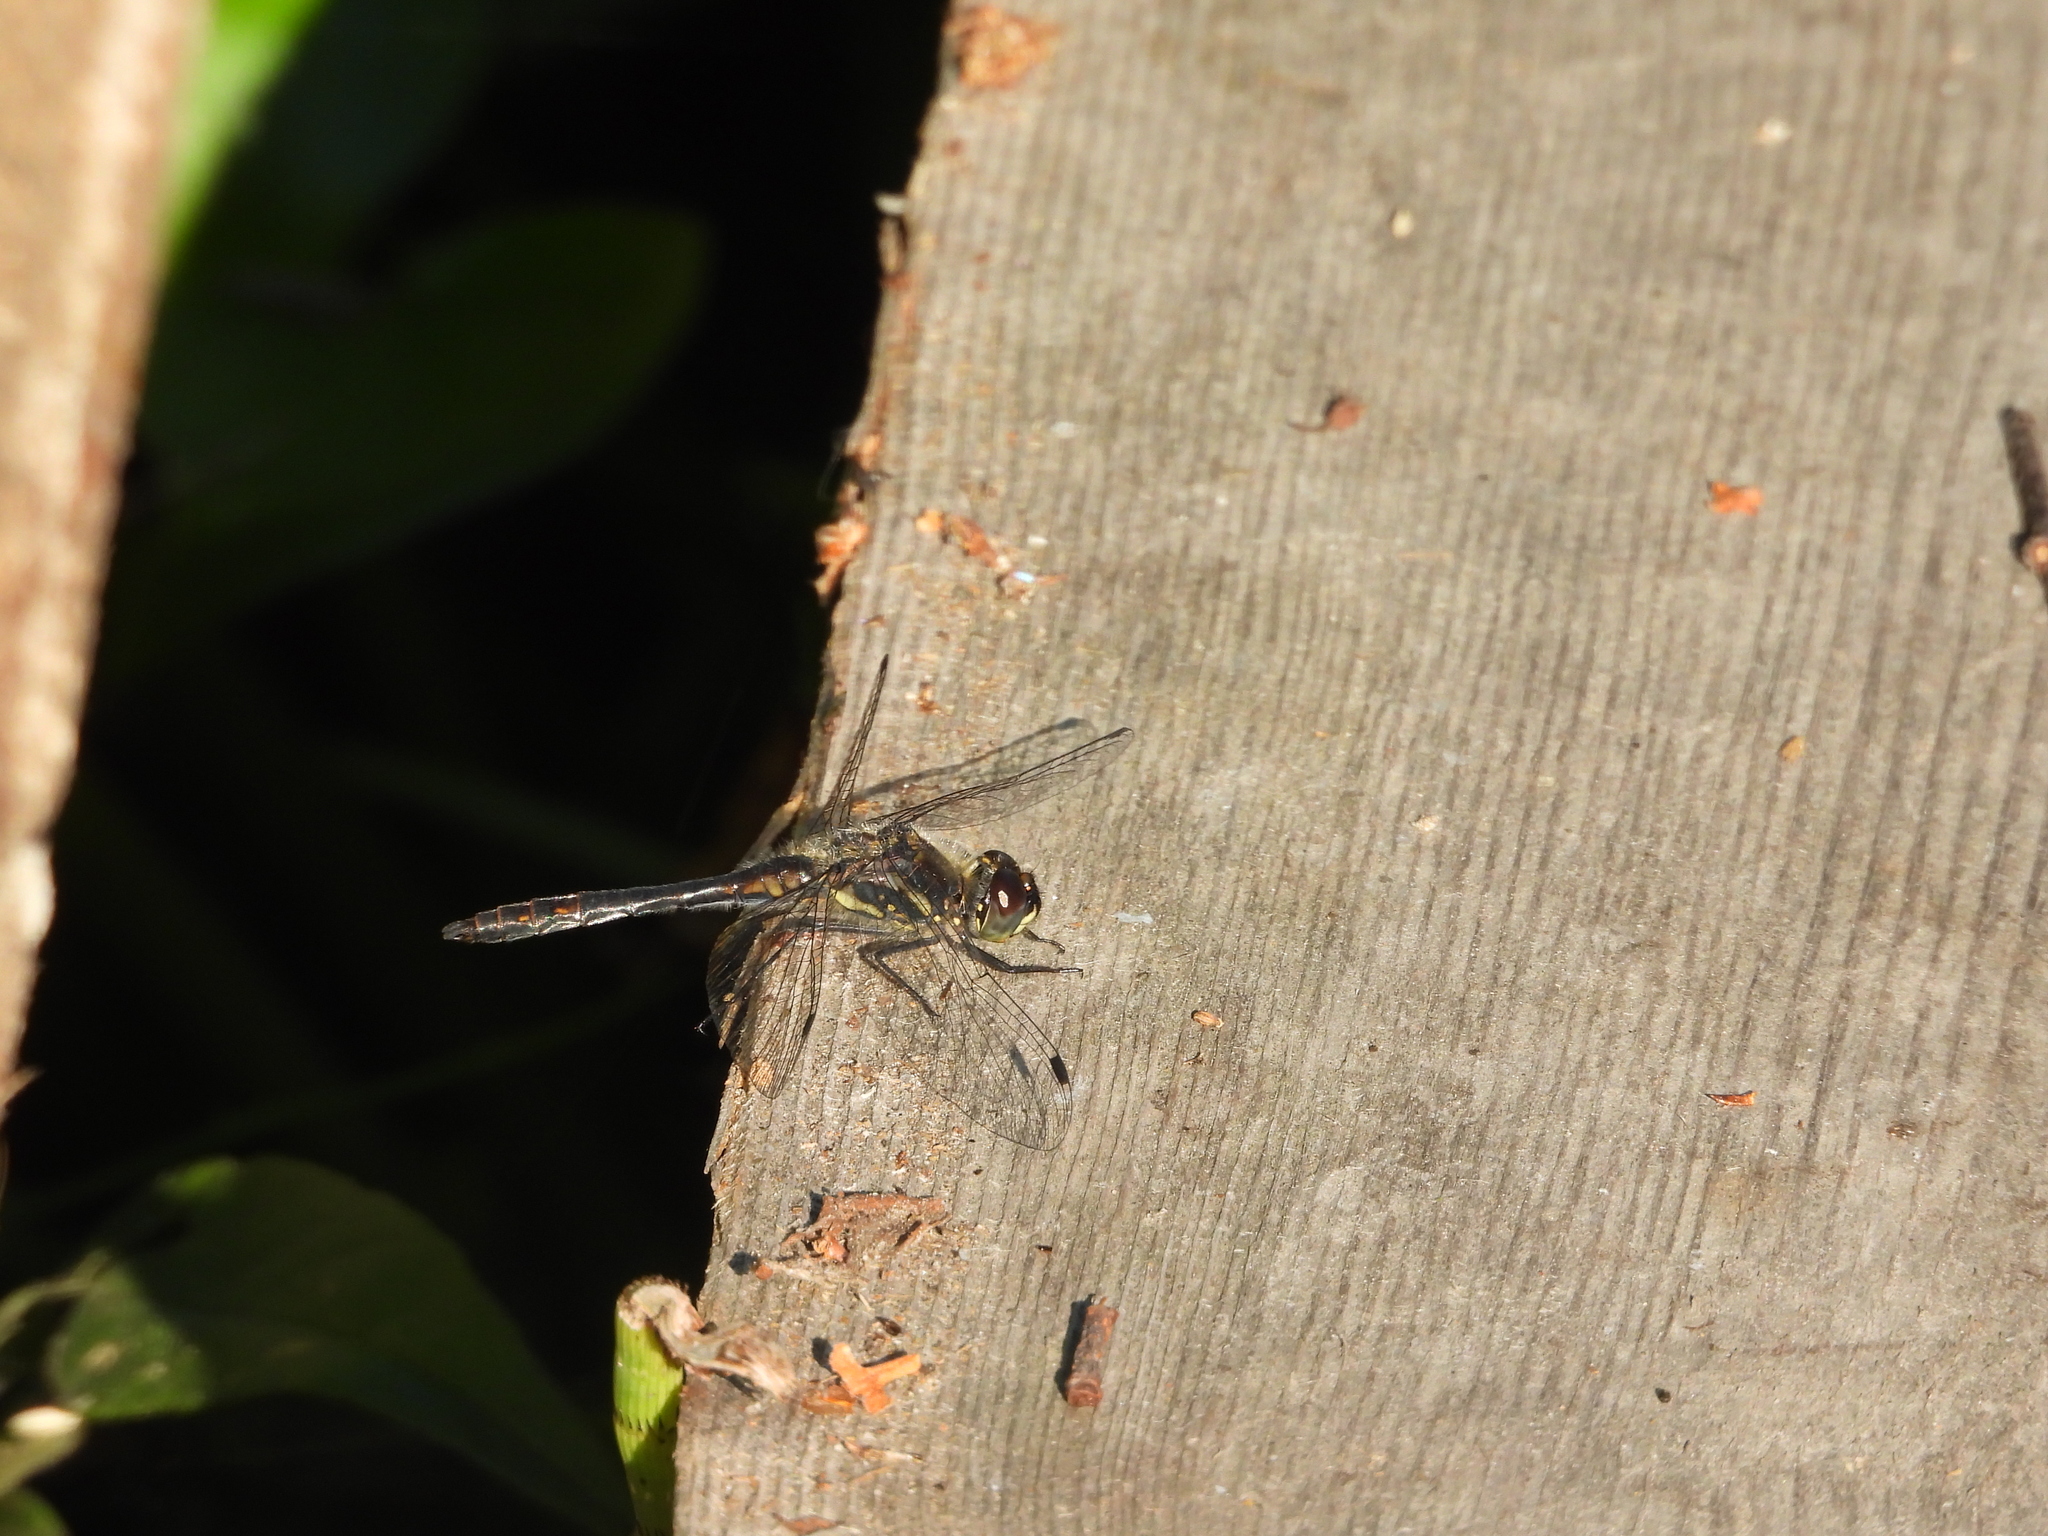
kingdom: Animalia
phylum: Arthropoda
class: Insecta
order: Odonata
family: Libellulidae
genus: Sympetrum
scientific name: Sympetrum danae
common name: Black darter
